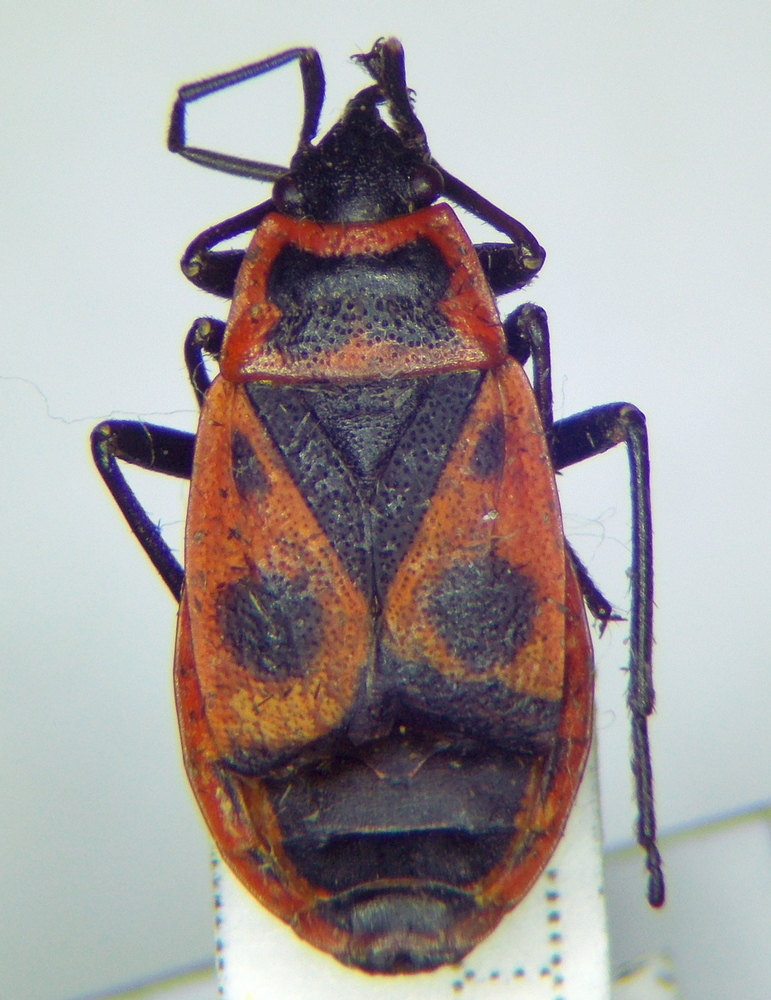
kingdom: Animalia
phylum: Arthropoda
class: Insecta
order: Hemiptera
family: Pyrrhocoridae
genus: Pyrrhocoris
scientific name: Pyrrhocoris apterus
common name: Firebug
